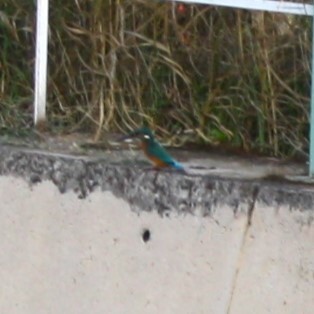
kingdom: Animalia
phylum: Chordata
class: Aves
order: Coraciiformes
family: Alcedinidae
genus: Alcedo
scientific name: Alcedo atthis
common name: Common kingfisher
